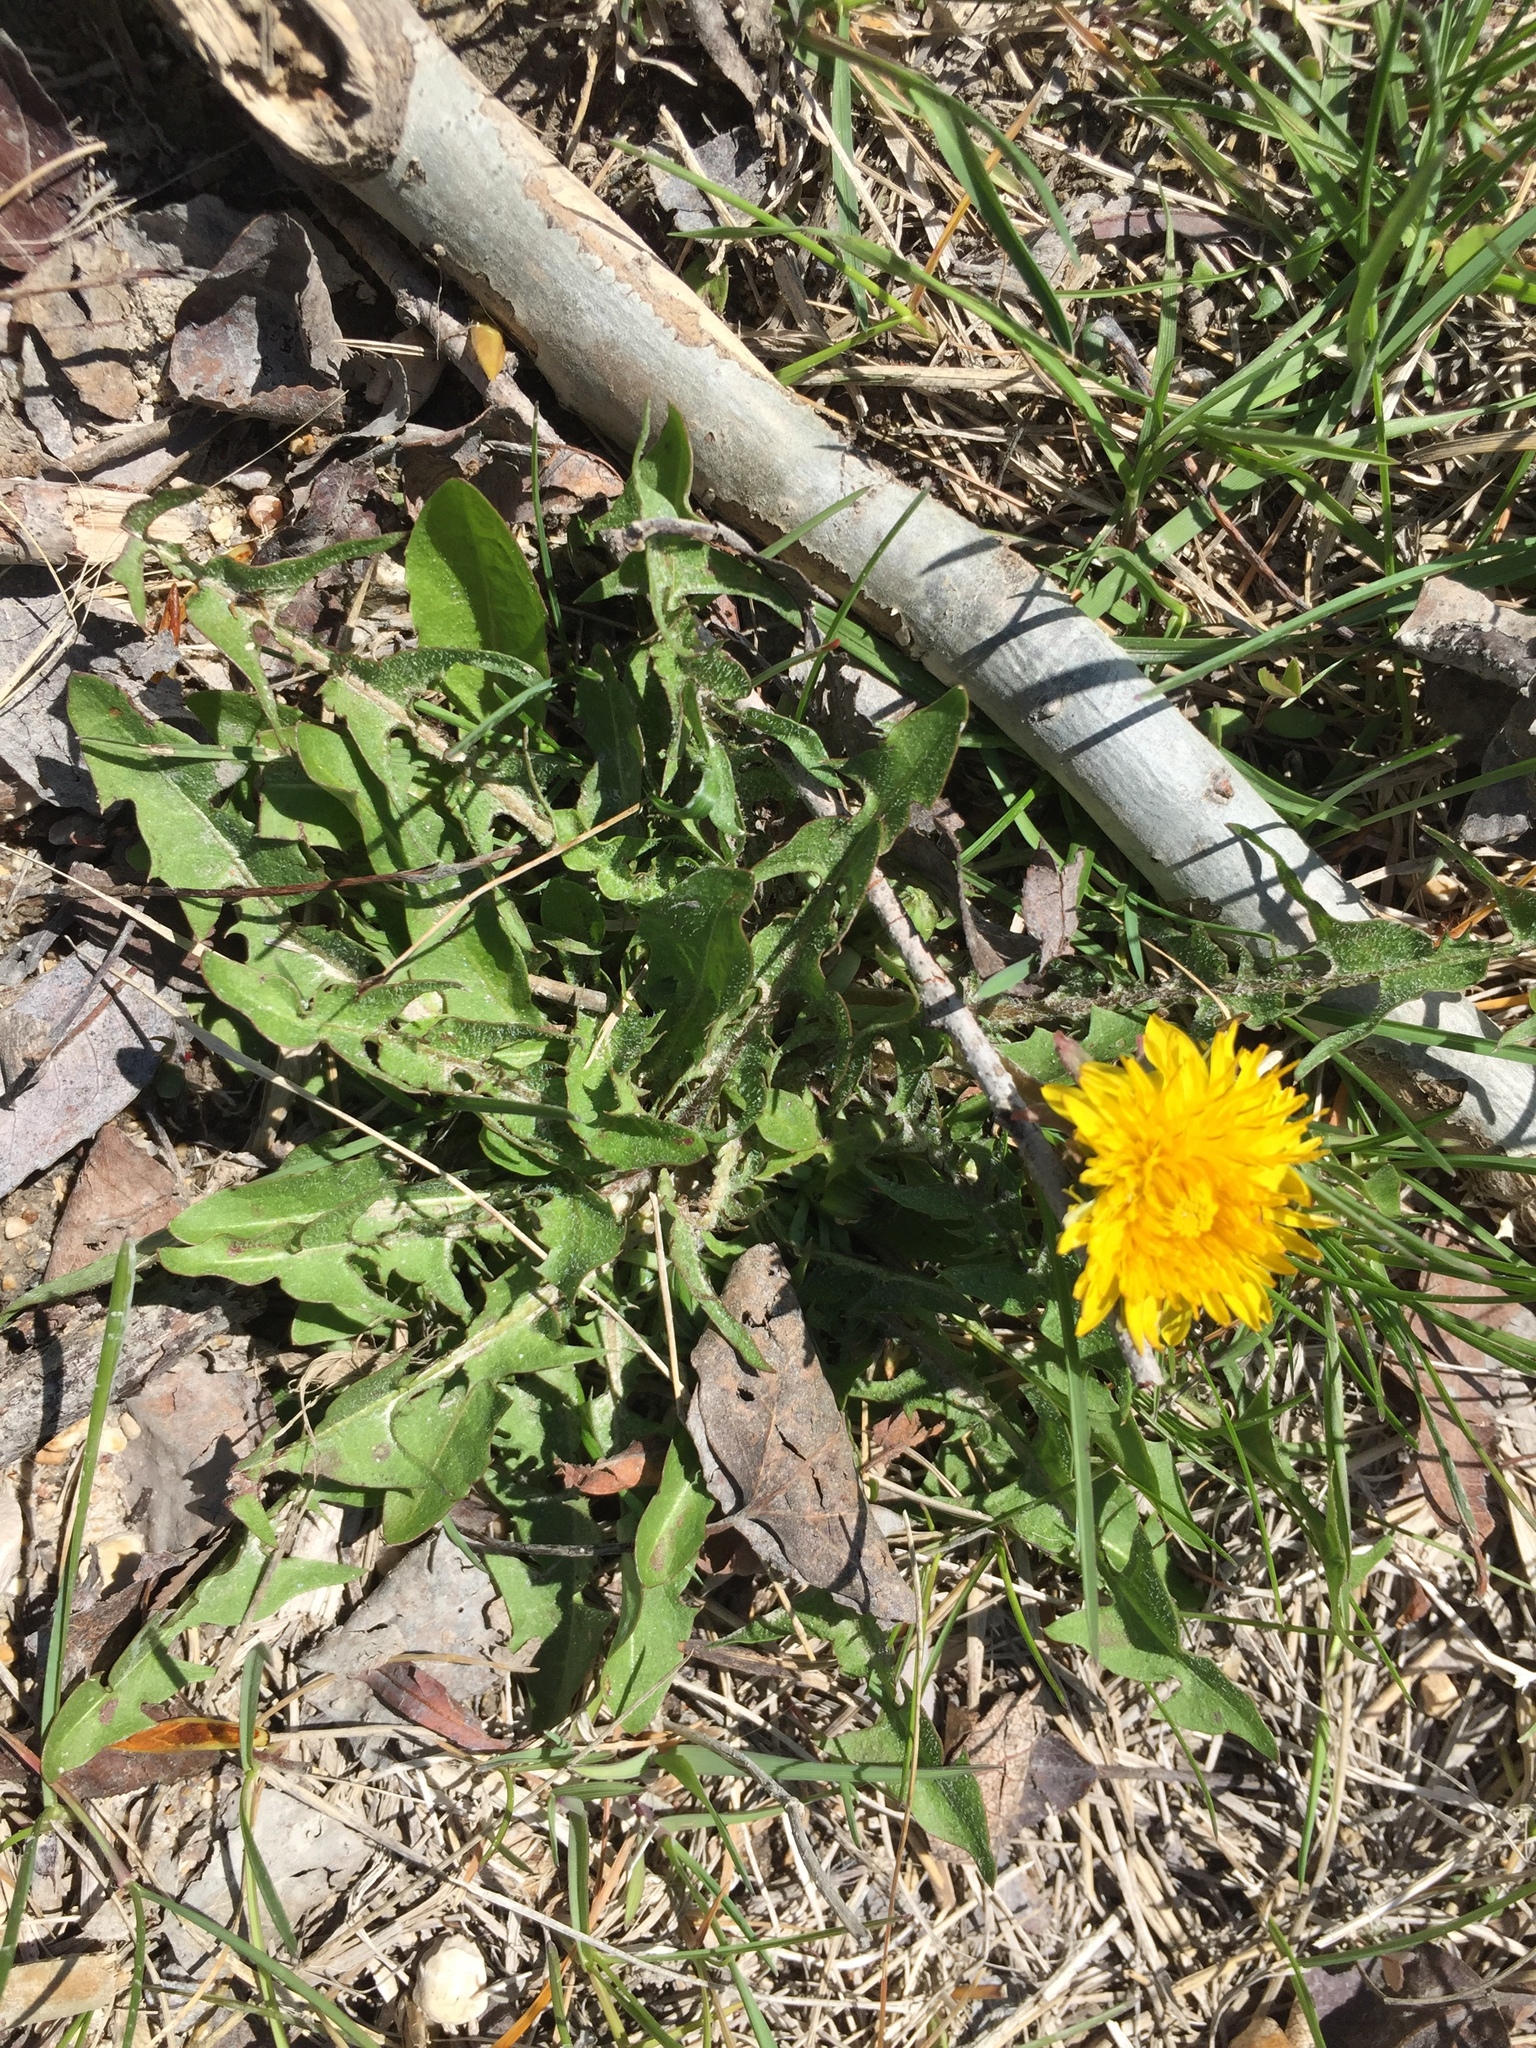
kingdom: Plantae
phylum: Tracheophyta
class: Magnoliopsida
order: Asterales
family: Asteraceae
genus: Taraxacum
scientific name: Taraxacum officinale
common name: Common dandelion
